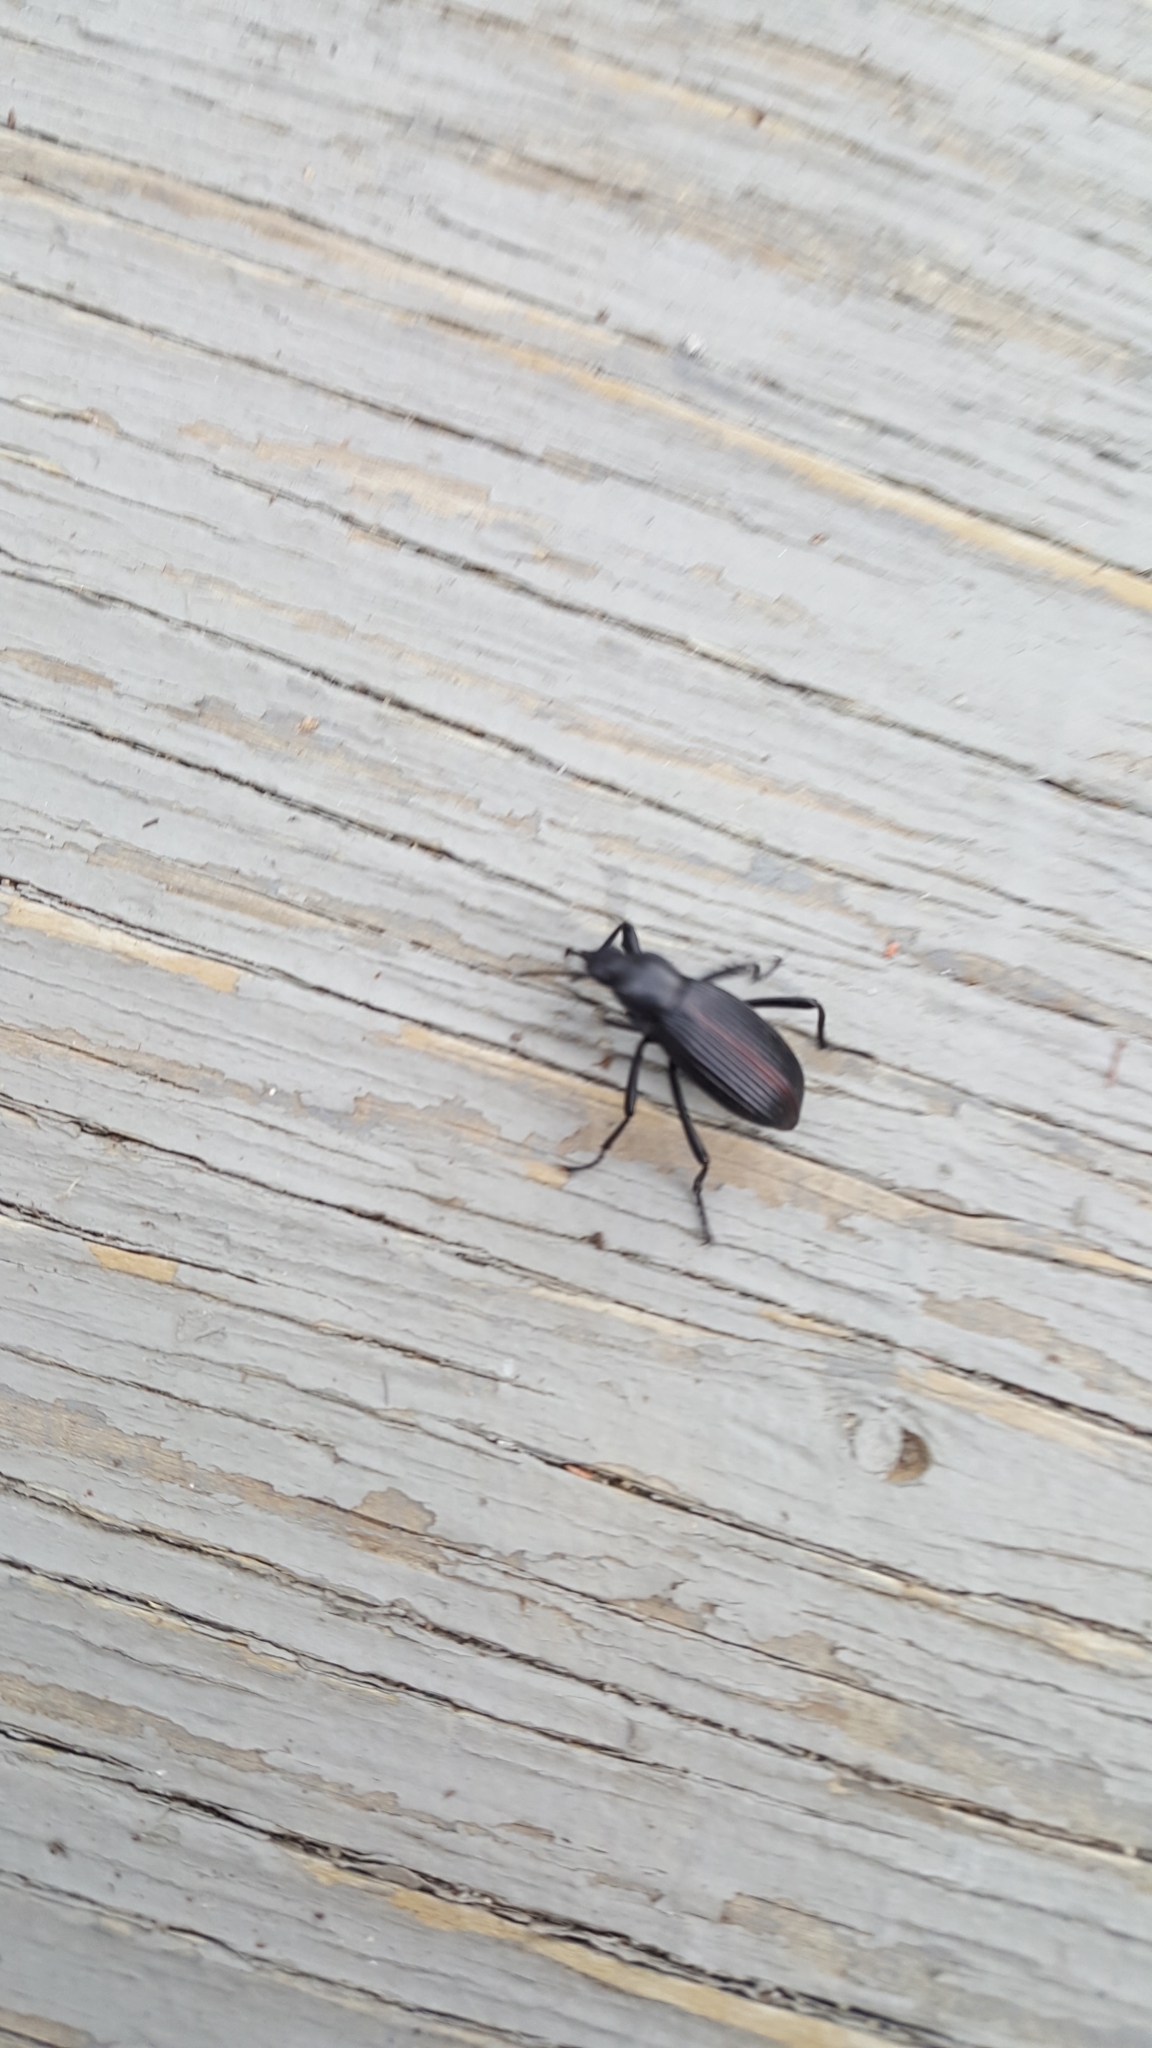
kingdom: Animalia
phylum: Arthropoda
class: Insecta
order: Coleoptera
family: Tenebrionidae
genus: Eleodes
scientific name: Eleodes hispilabris
